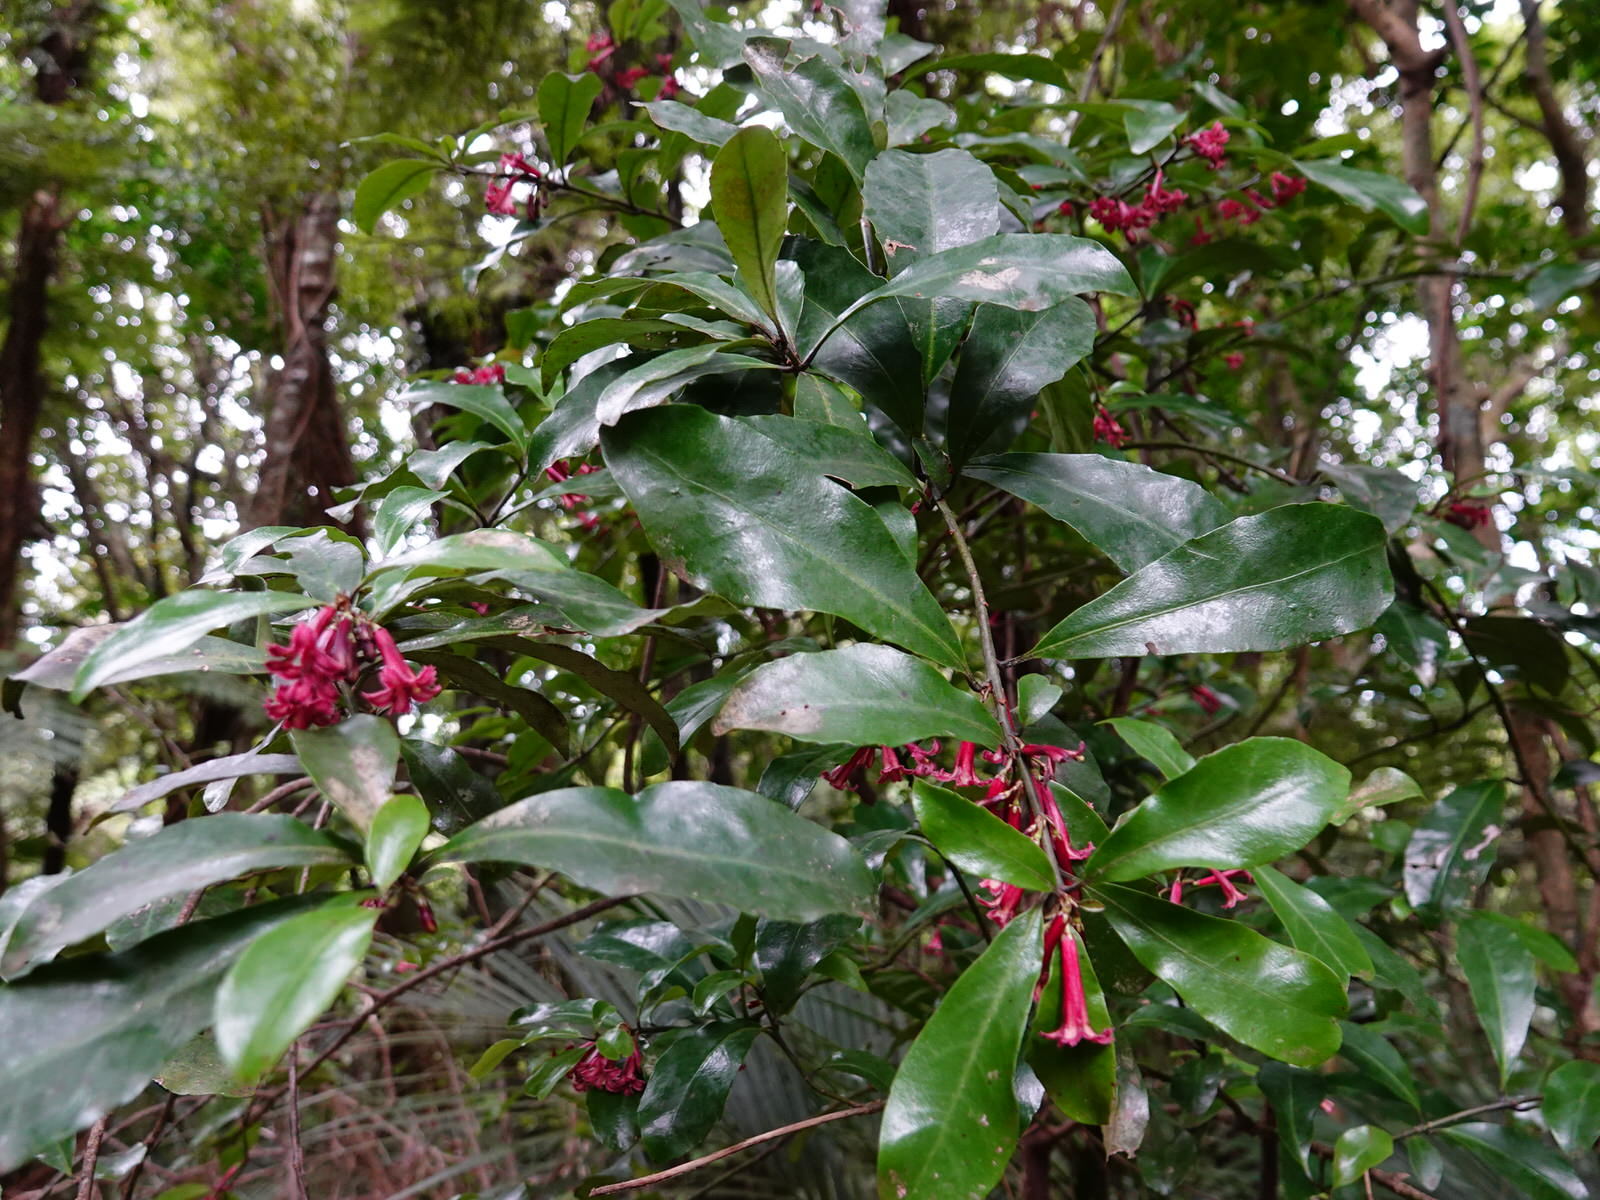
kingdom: Plantae
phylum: Tracheophyta
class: Magnoliopsida
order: Asterales
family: Alseuosmiaceae
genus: Alseuosmia
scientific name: Alseuosmia macrophylla
